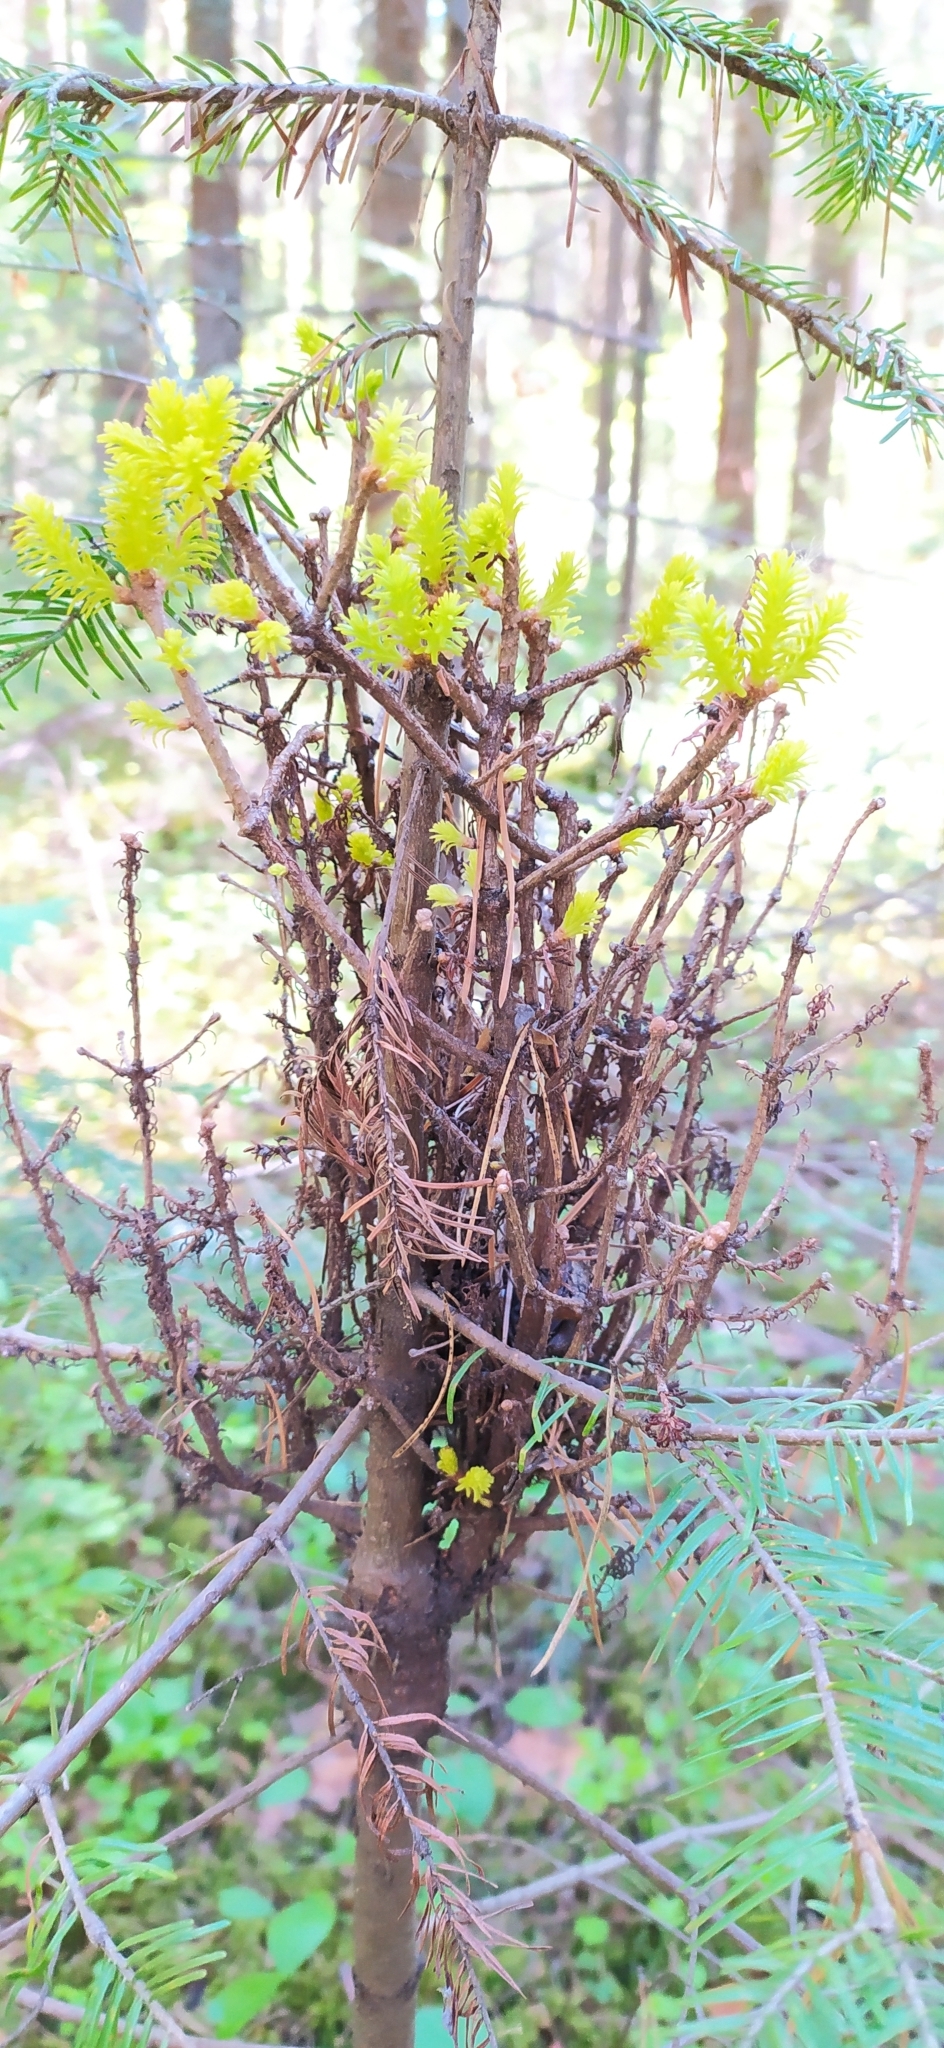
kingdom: Fungi
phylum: Basidiomycota
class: Pucciniomycetes
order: Pucciniales
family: Pucciniastraceae
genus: Melampsorella
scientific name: Melampsorella elatina
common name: Fir broom rust
